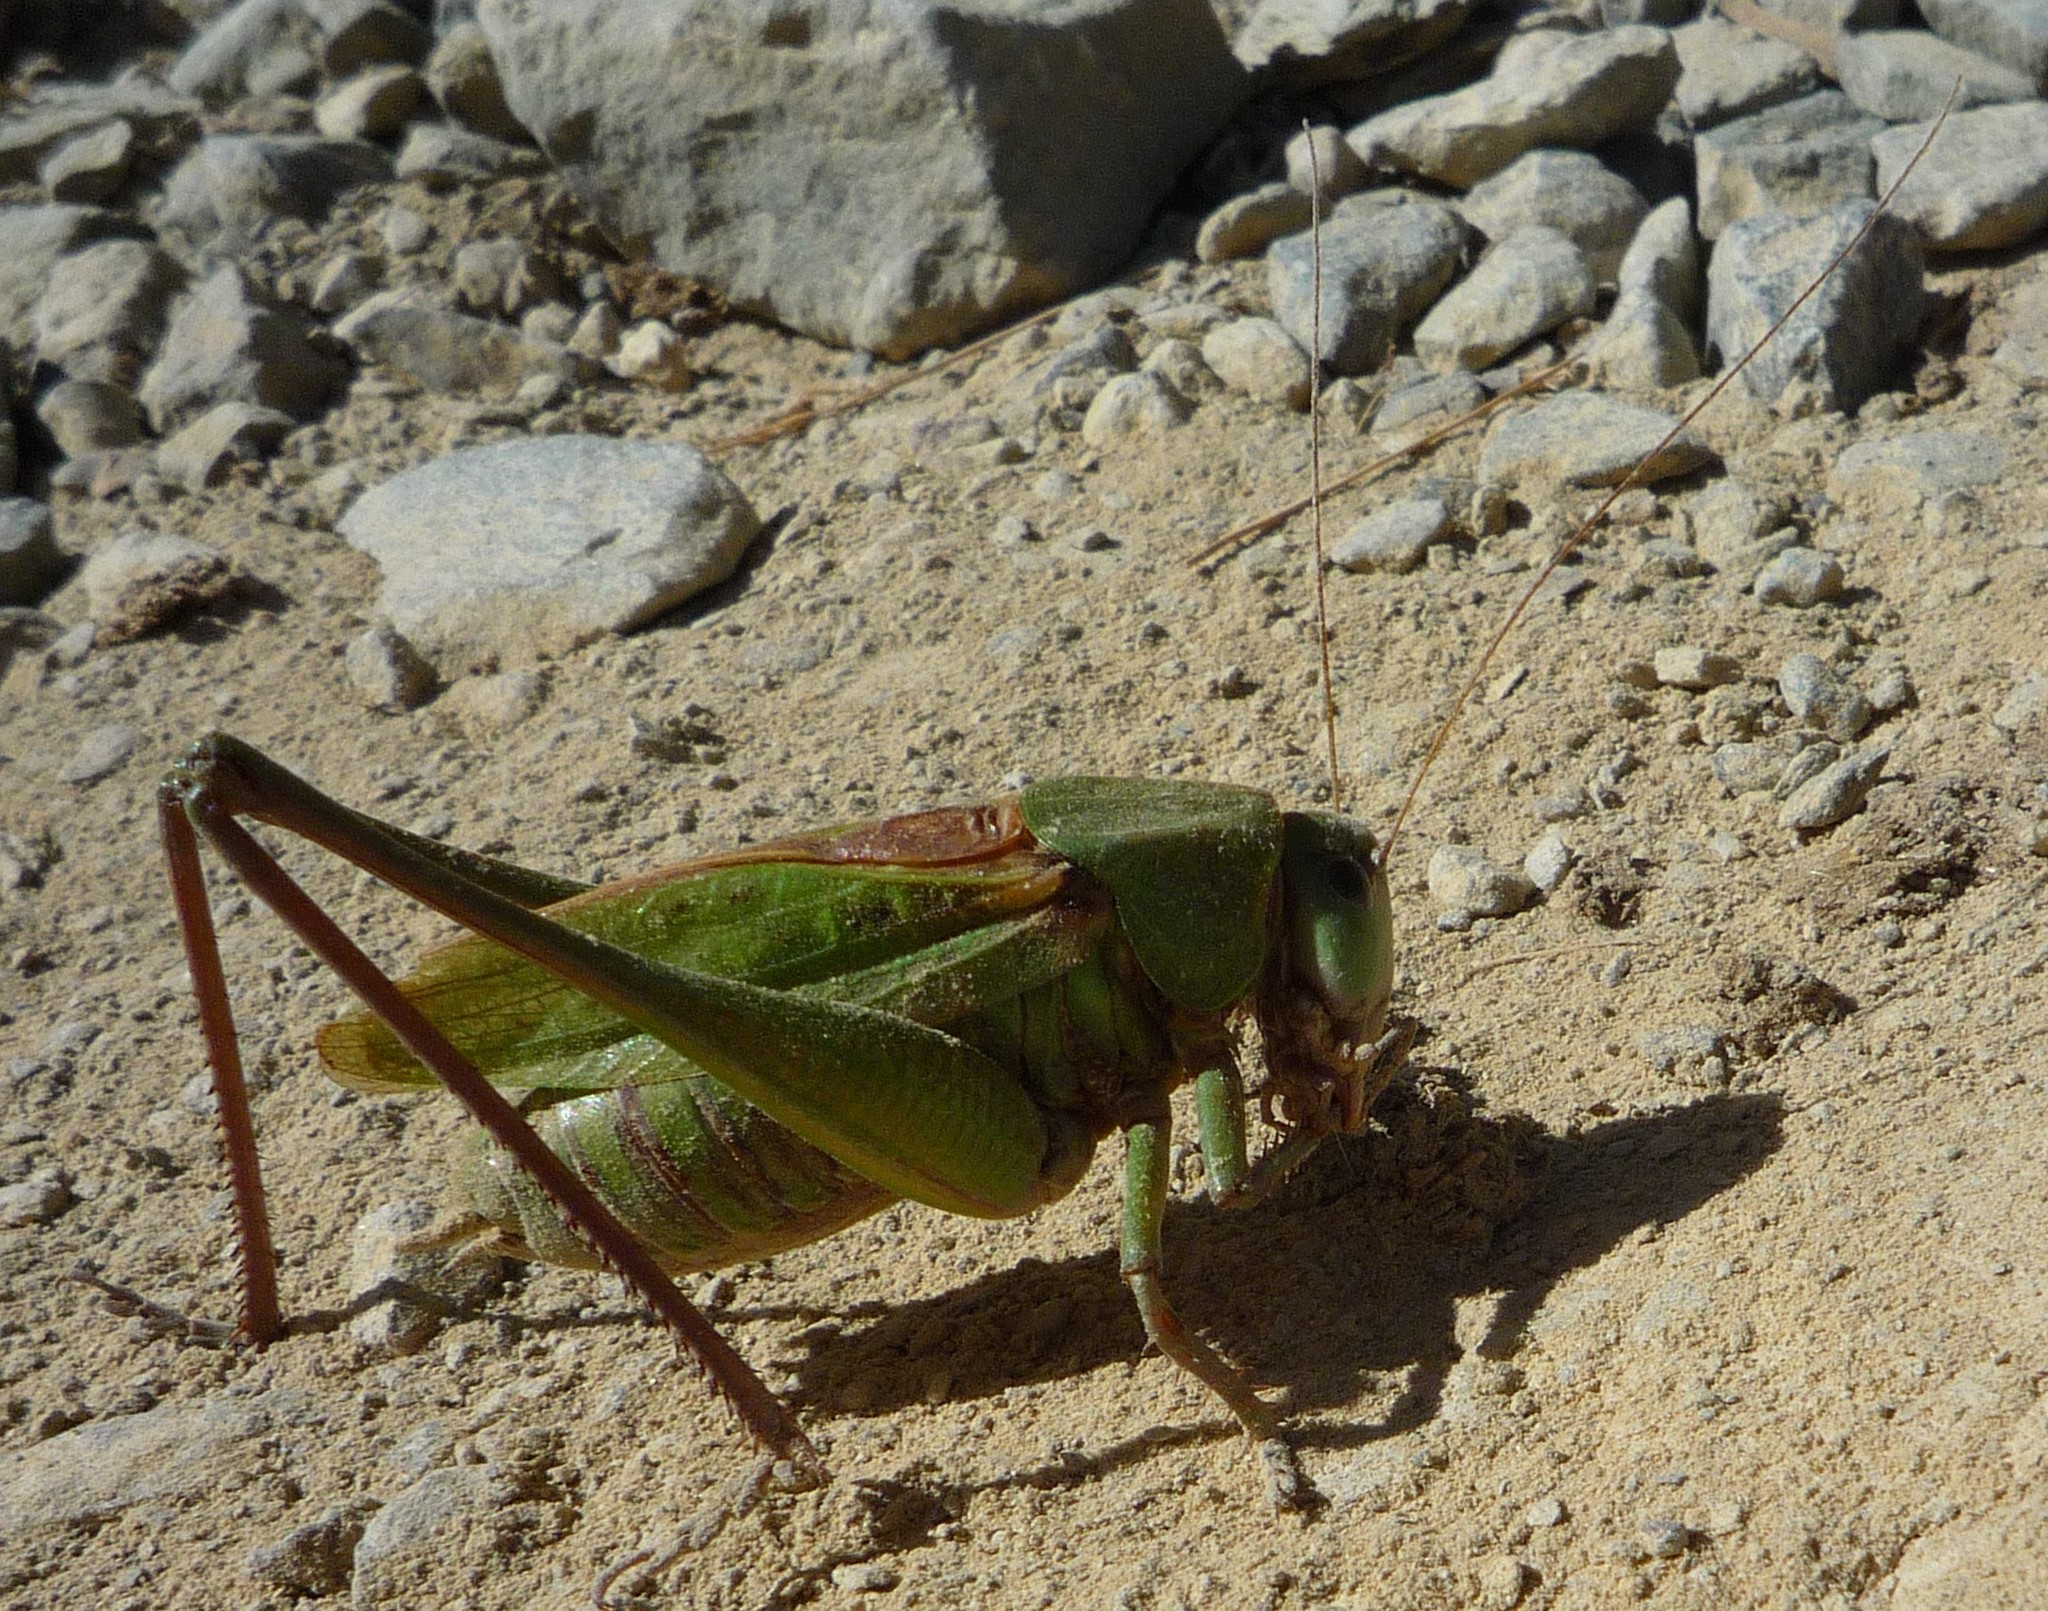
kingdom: Animalia
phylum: Arthropoda
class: Insecta
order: Orthoptera
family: Tettigoniidae
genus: Decticus
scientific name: Decticus verrucivorus
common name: Wart-biter
